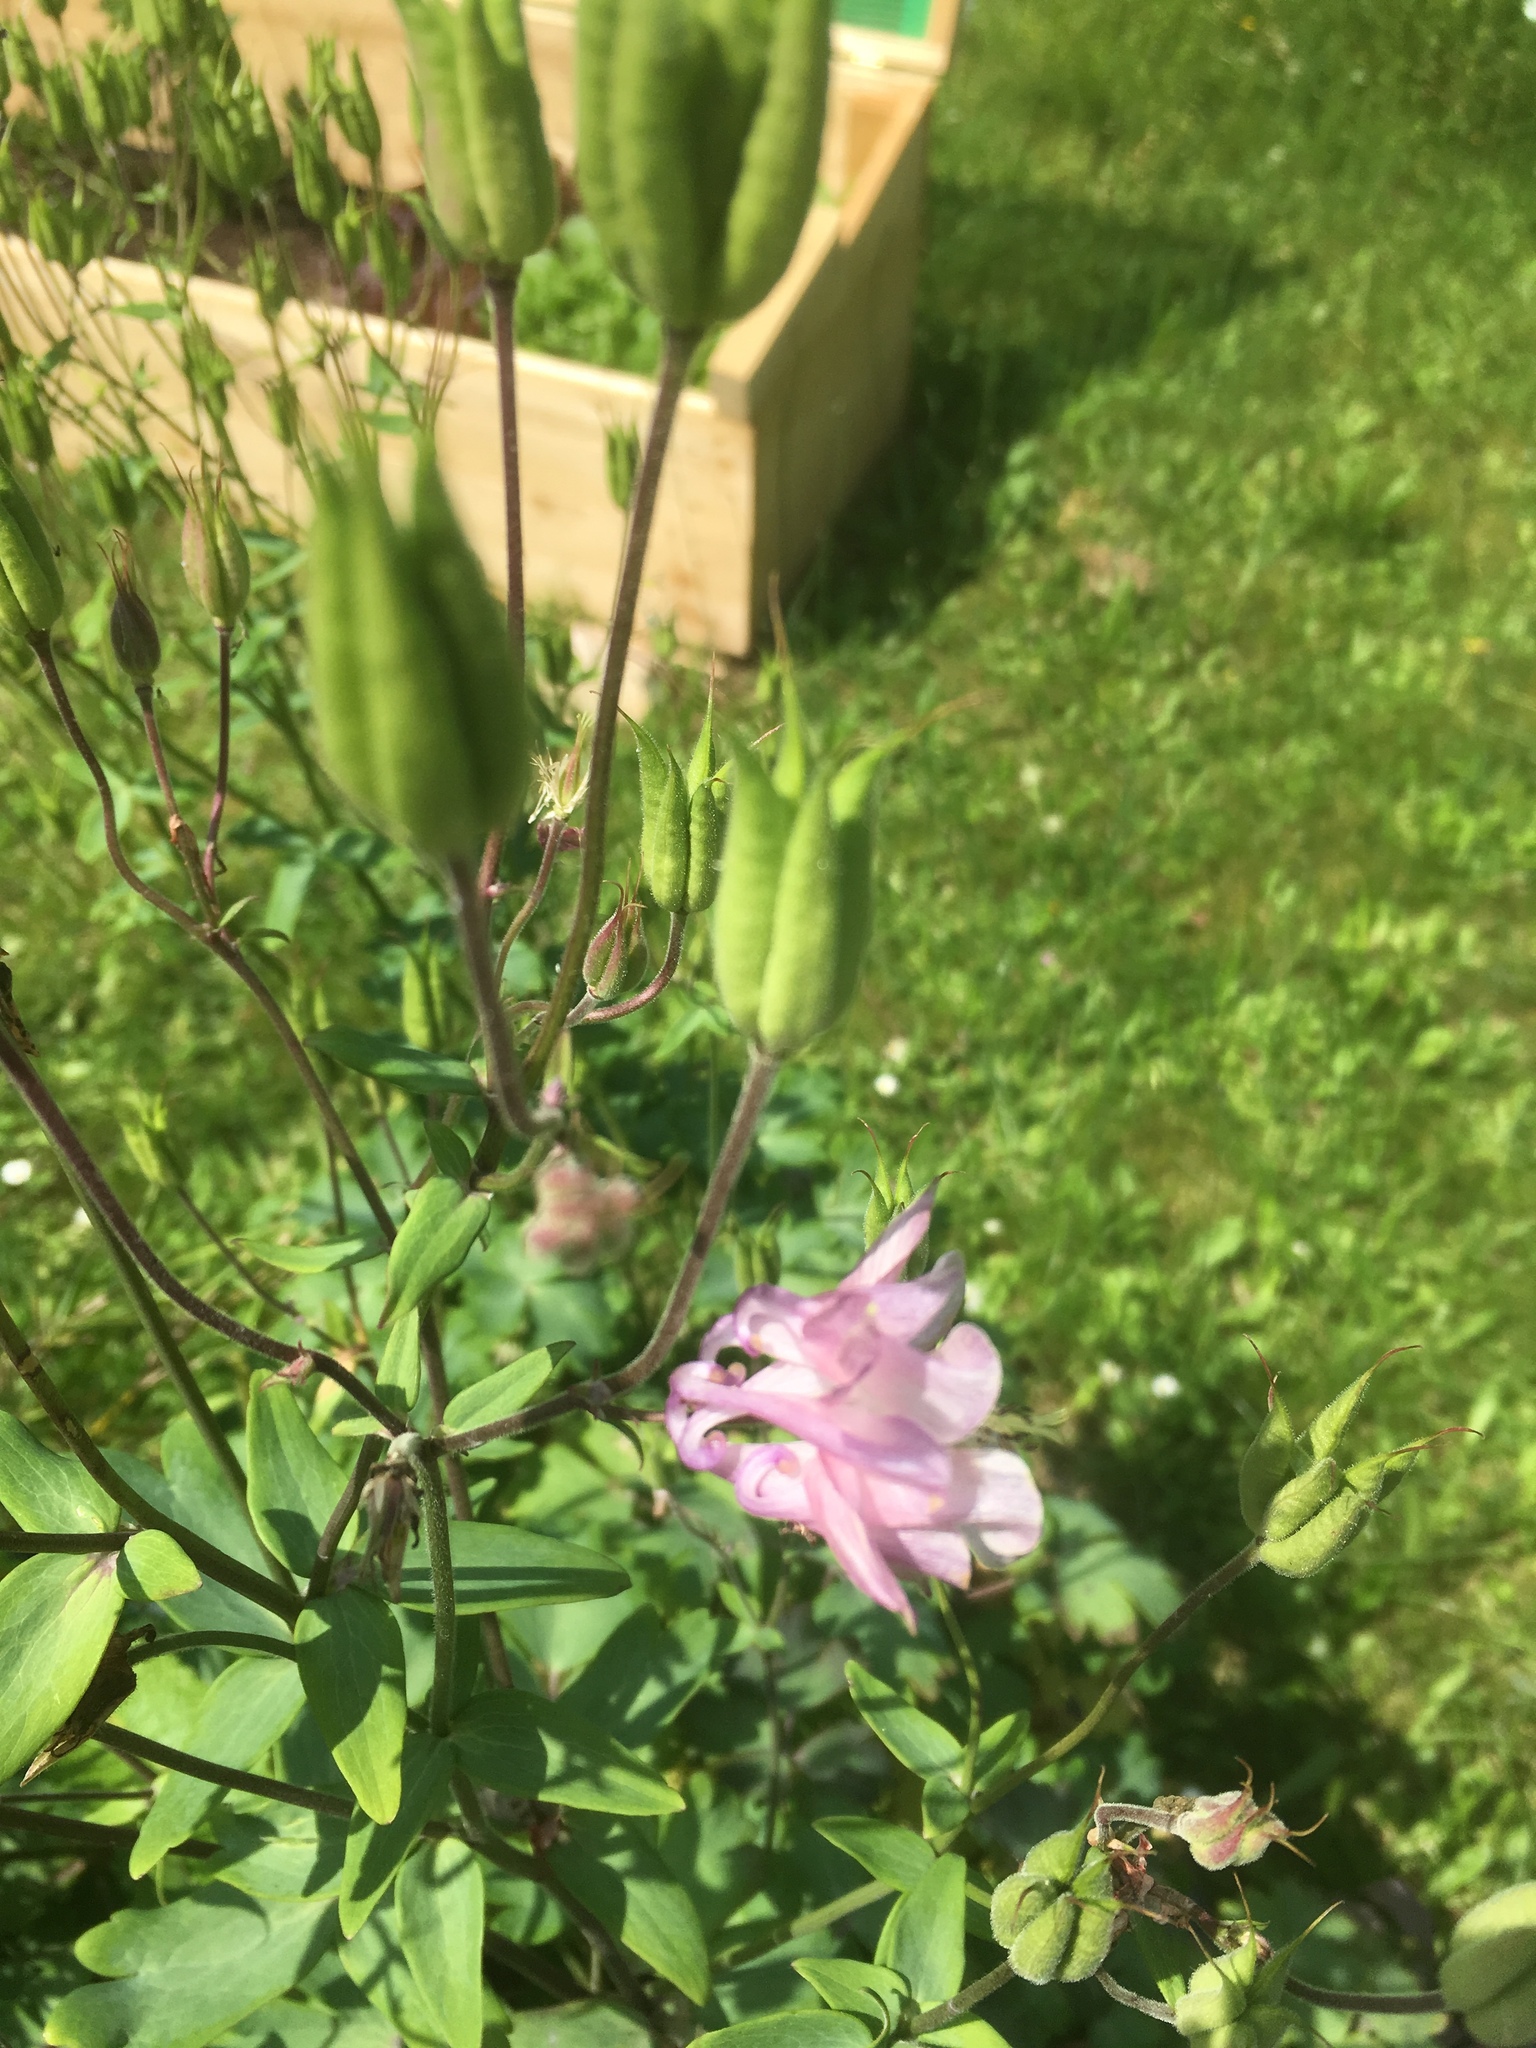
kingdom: Plantae
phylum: Tracheophyta
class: Magnoliopsida
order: Ranunculales
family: Ranunculaceae
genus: Aquilegia
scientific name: Aquilegia vulgaris
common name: Columbine
